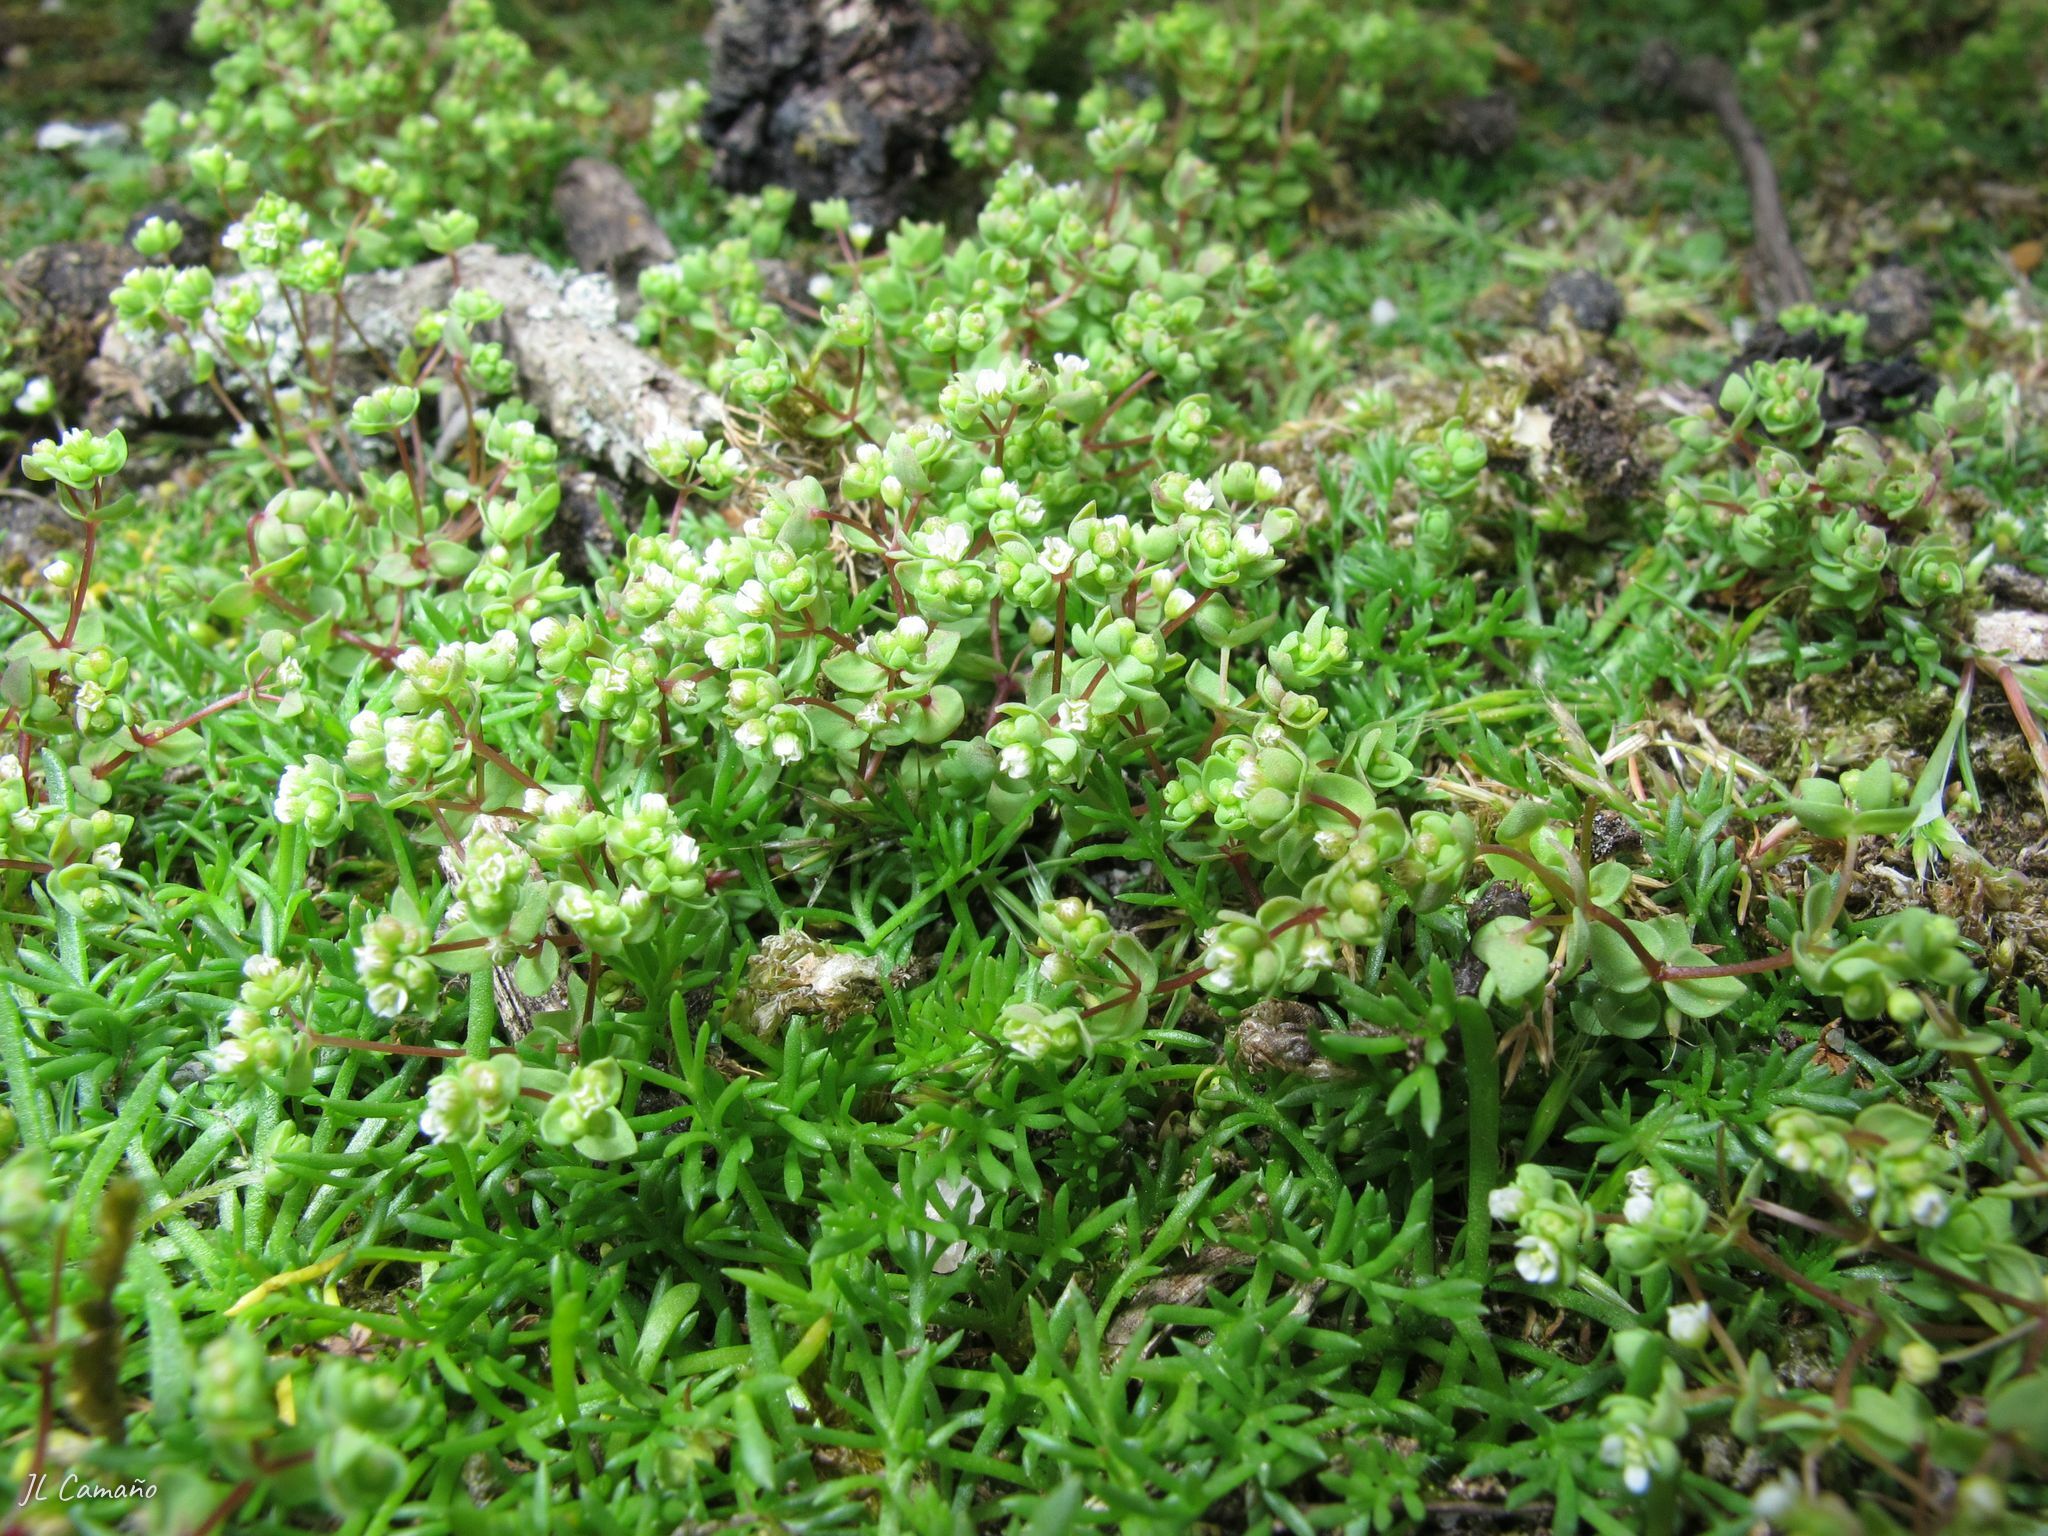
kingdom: Plantae
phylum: Tracheophyta
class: Magnoliopsida
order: Malpighiales
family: Linaceae
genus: Radiola
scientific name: Radiola linoides
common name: Allseed
